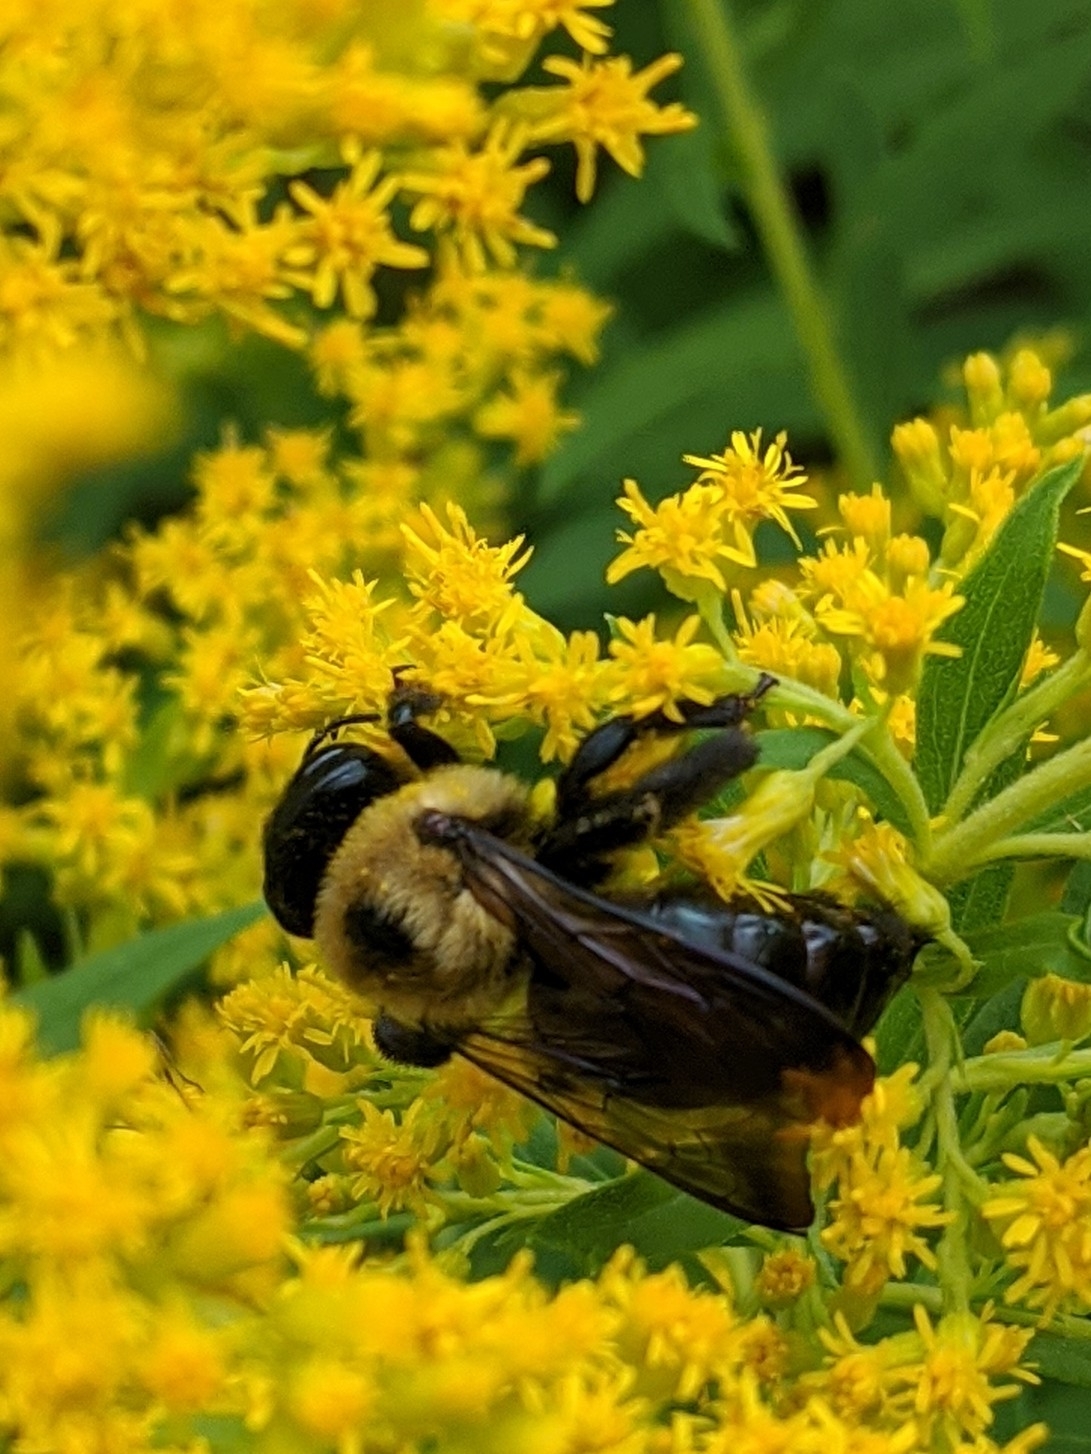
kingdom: Animalia
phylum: Arthropoda
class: Insecta
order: Hymenoptera
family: Apidae
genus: Xylocopa
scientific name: Xylocopa virginica
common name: Carpenter bee
